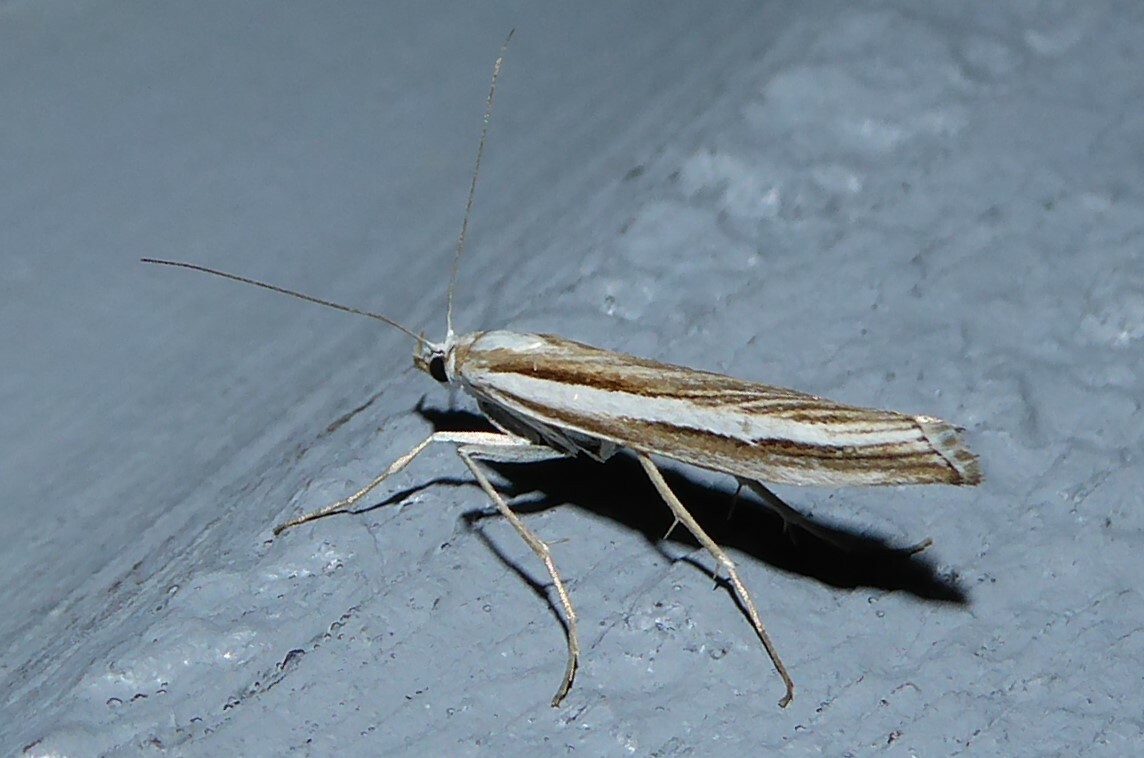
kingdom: Animalia
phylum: Arthropoda
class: Insecta
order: Lepidoptera
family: Crambidae
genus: Orocrambus
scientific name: Orocrambus vittellus
